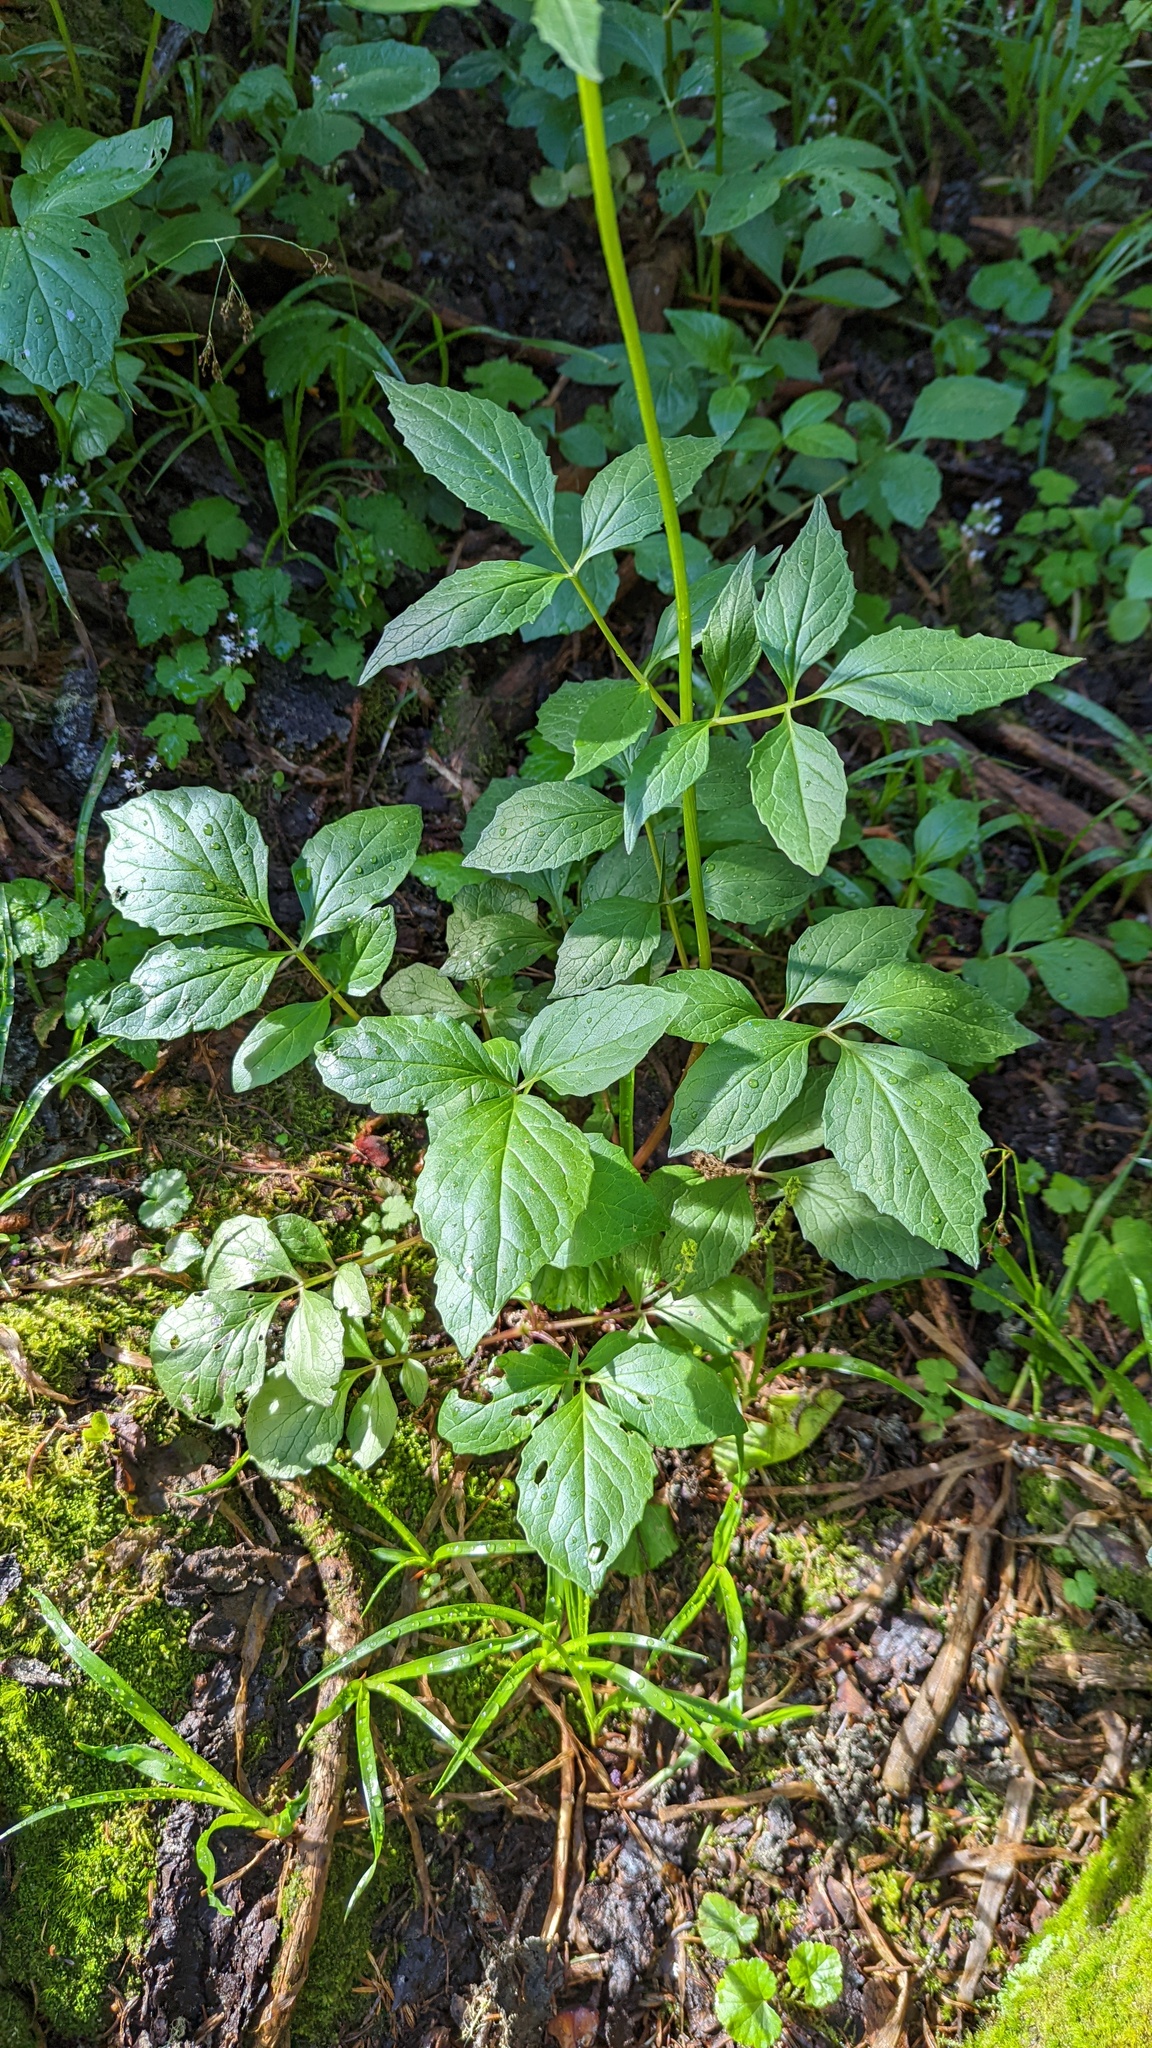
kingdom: Plantae
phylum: Tracheophyta
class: Magnoliopsida
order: Dipsacales
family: Caprifoliaceae
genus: Valeriana
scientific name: Valeriana sitchensis
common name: Pacific valerian
